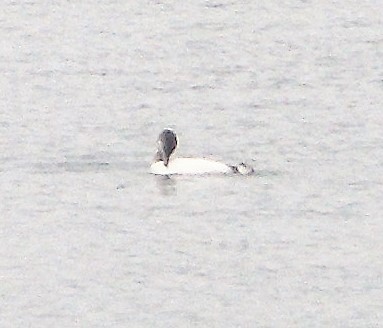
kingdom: Animalia
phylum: Chordata
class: Aves
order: Gaviiformes
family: Gaviidae
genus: Gavia
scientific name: Gavia immer
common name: Common loon
